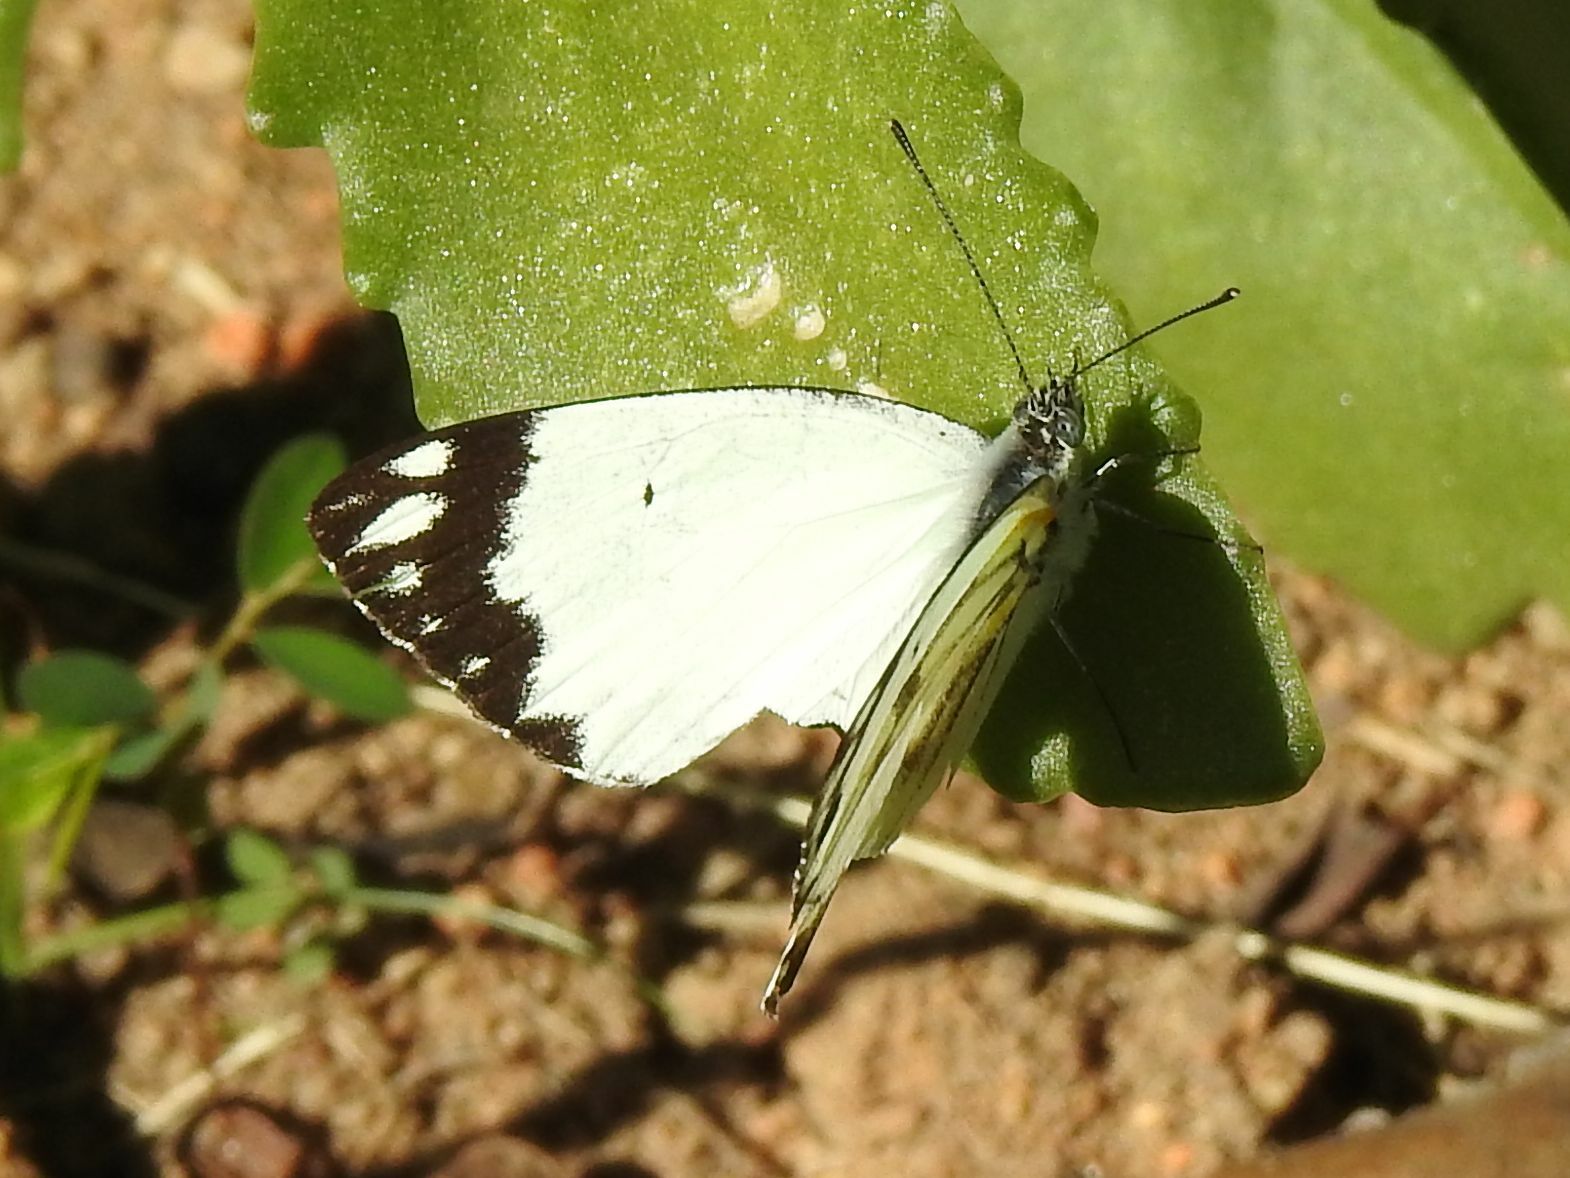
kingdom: Animalia
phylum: Arthropoda
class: Insecta
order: Lepidoptera
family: Pieridae
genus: Belenois
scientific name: Belenois creona
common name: African caper white
